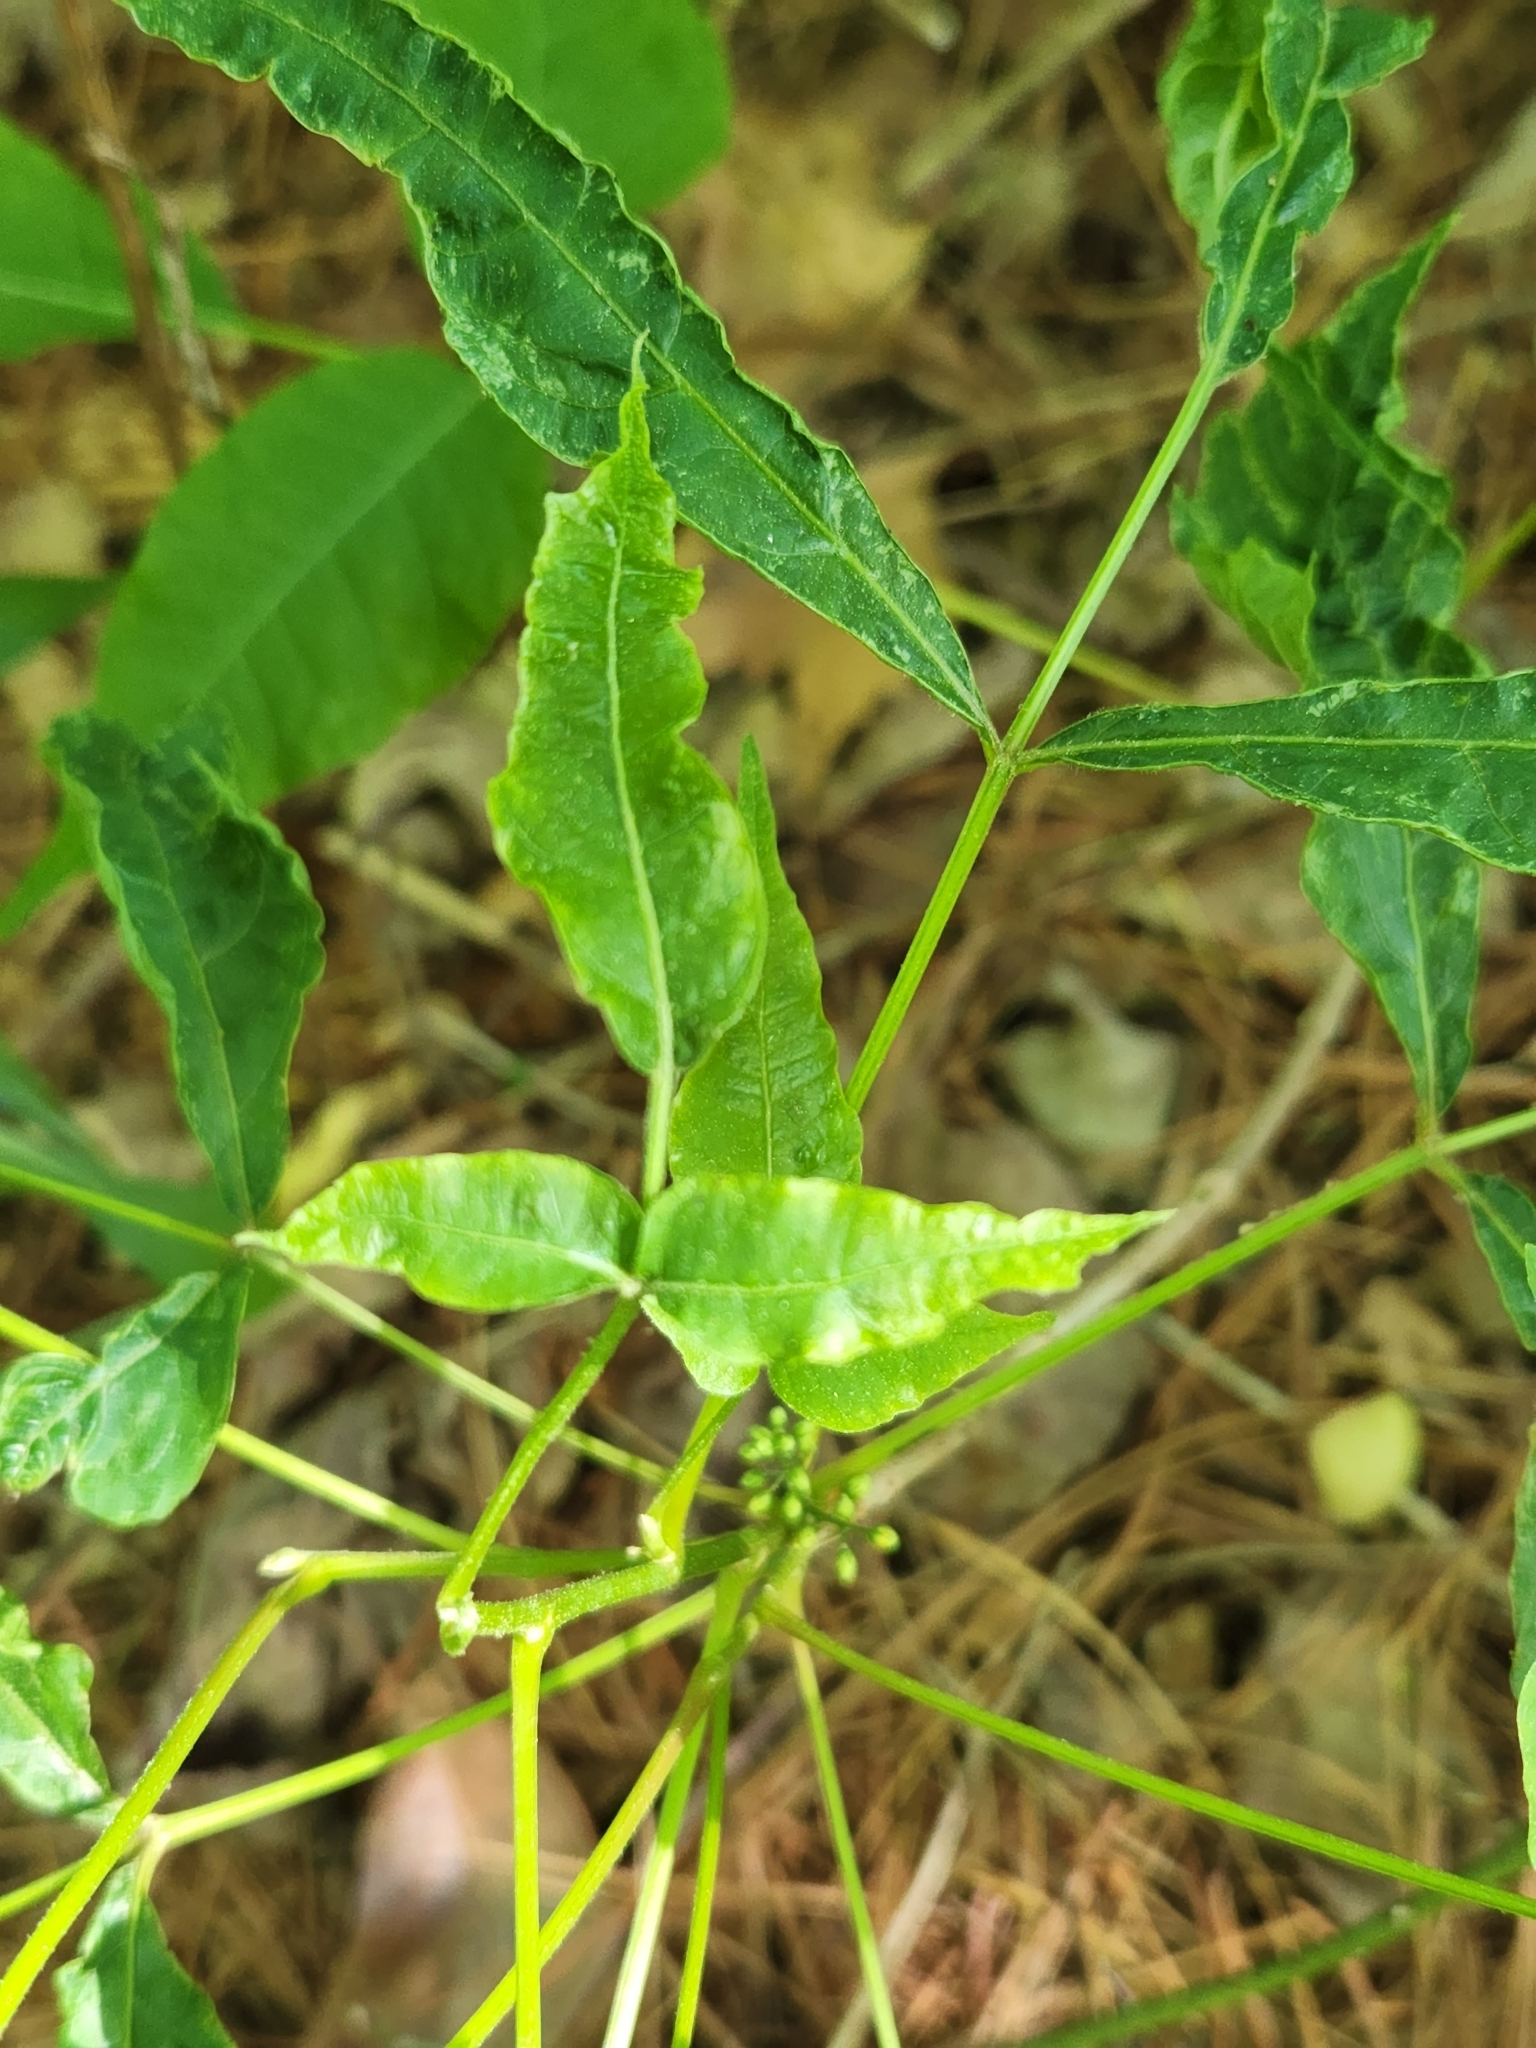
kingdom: Plantae
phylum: Tracheophyta
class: Magnoliopsida
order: Sapindales
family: Anacardiaceae
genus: Toxicodendron
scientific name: Toxicodendron radicans
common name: Poison ivy
